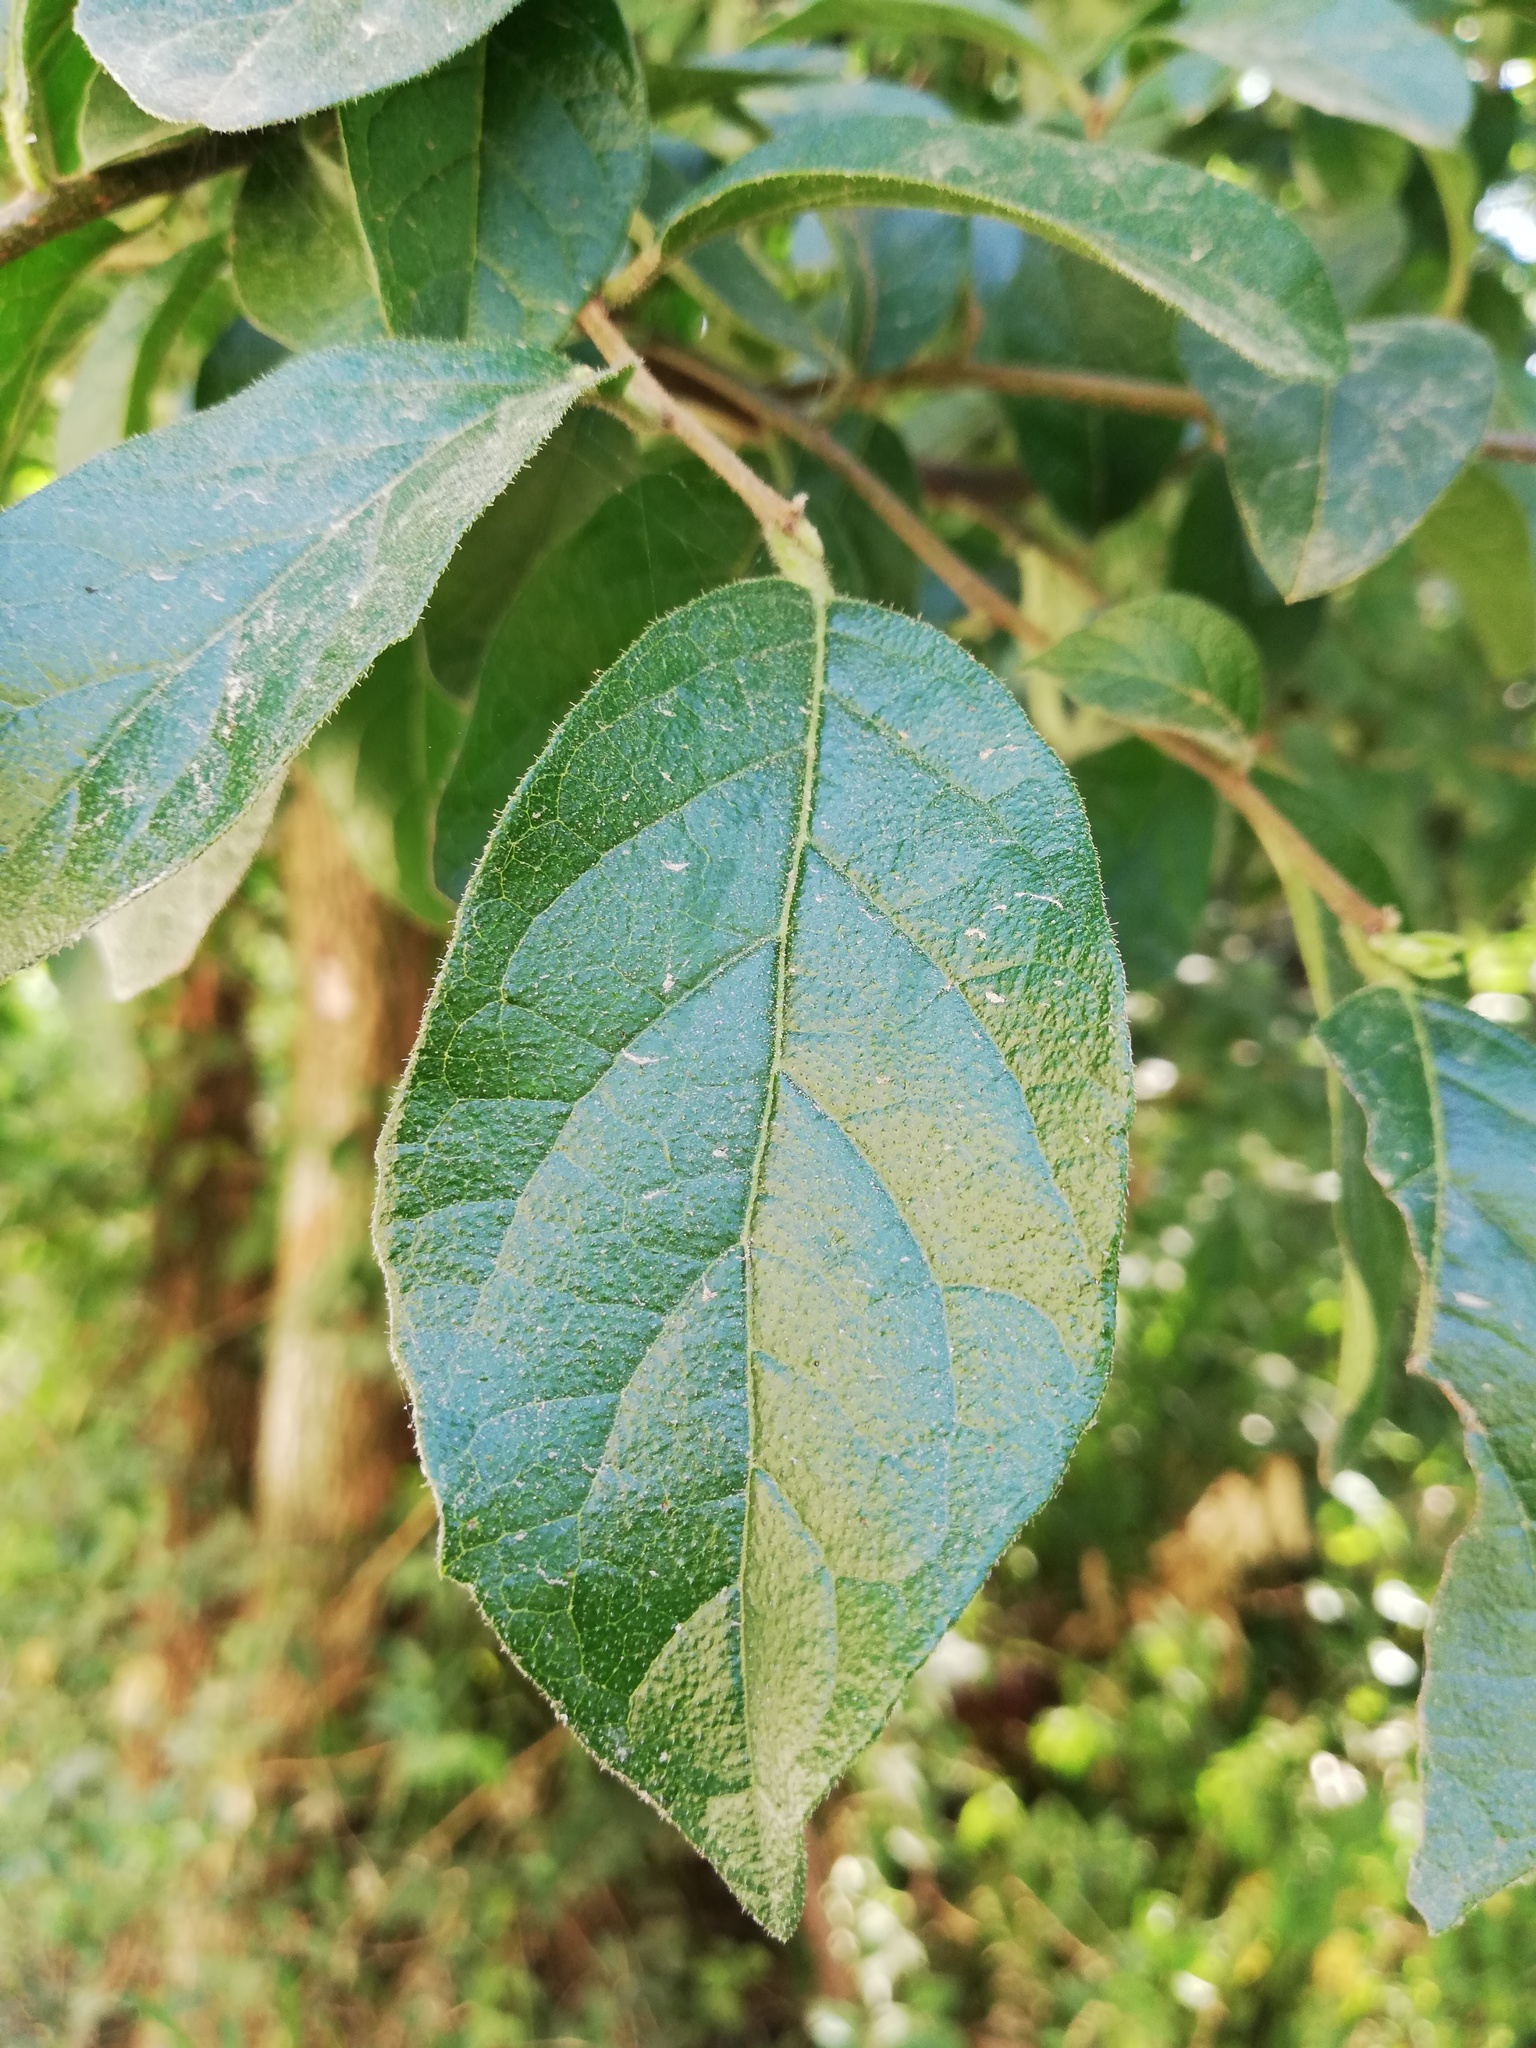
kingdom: Plantae
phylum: Tracheophyta
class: Magnoliopsida
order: Boraginales
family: Ehretiaceae
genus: Ehretia
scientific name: Ehretia anacua
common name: Sugarberry
